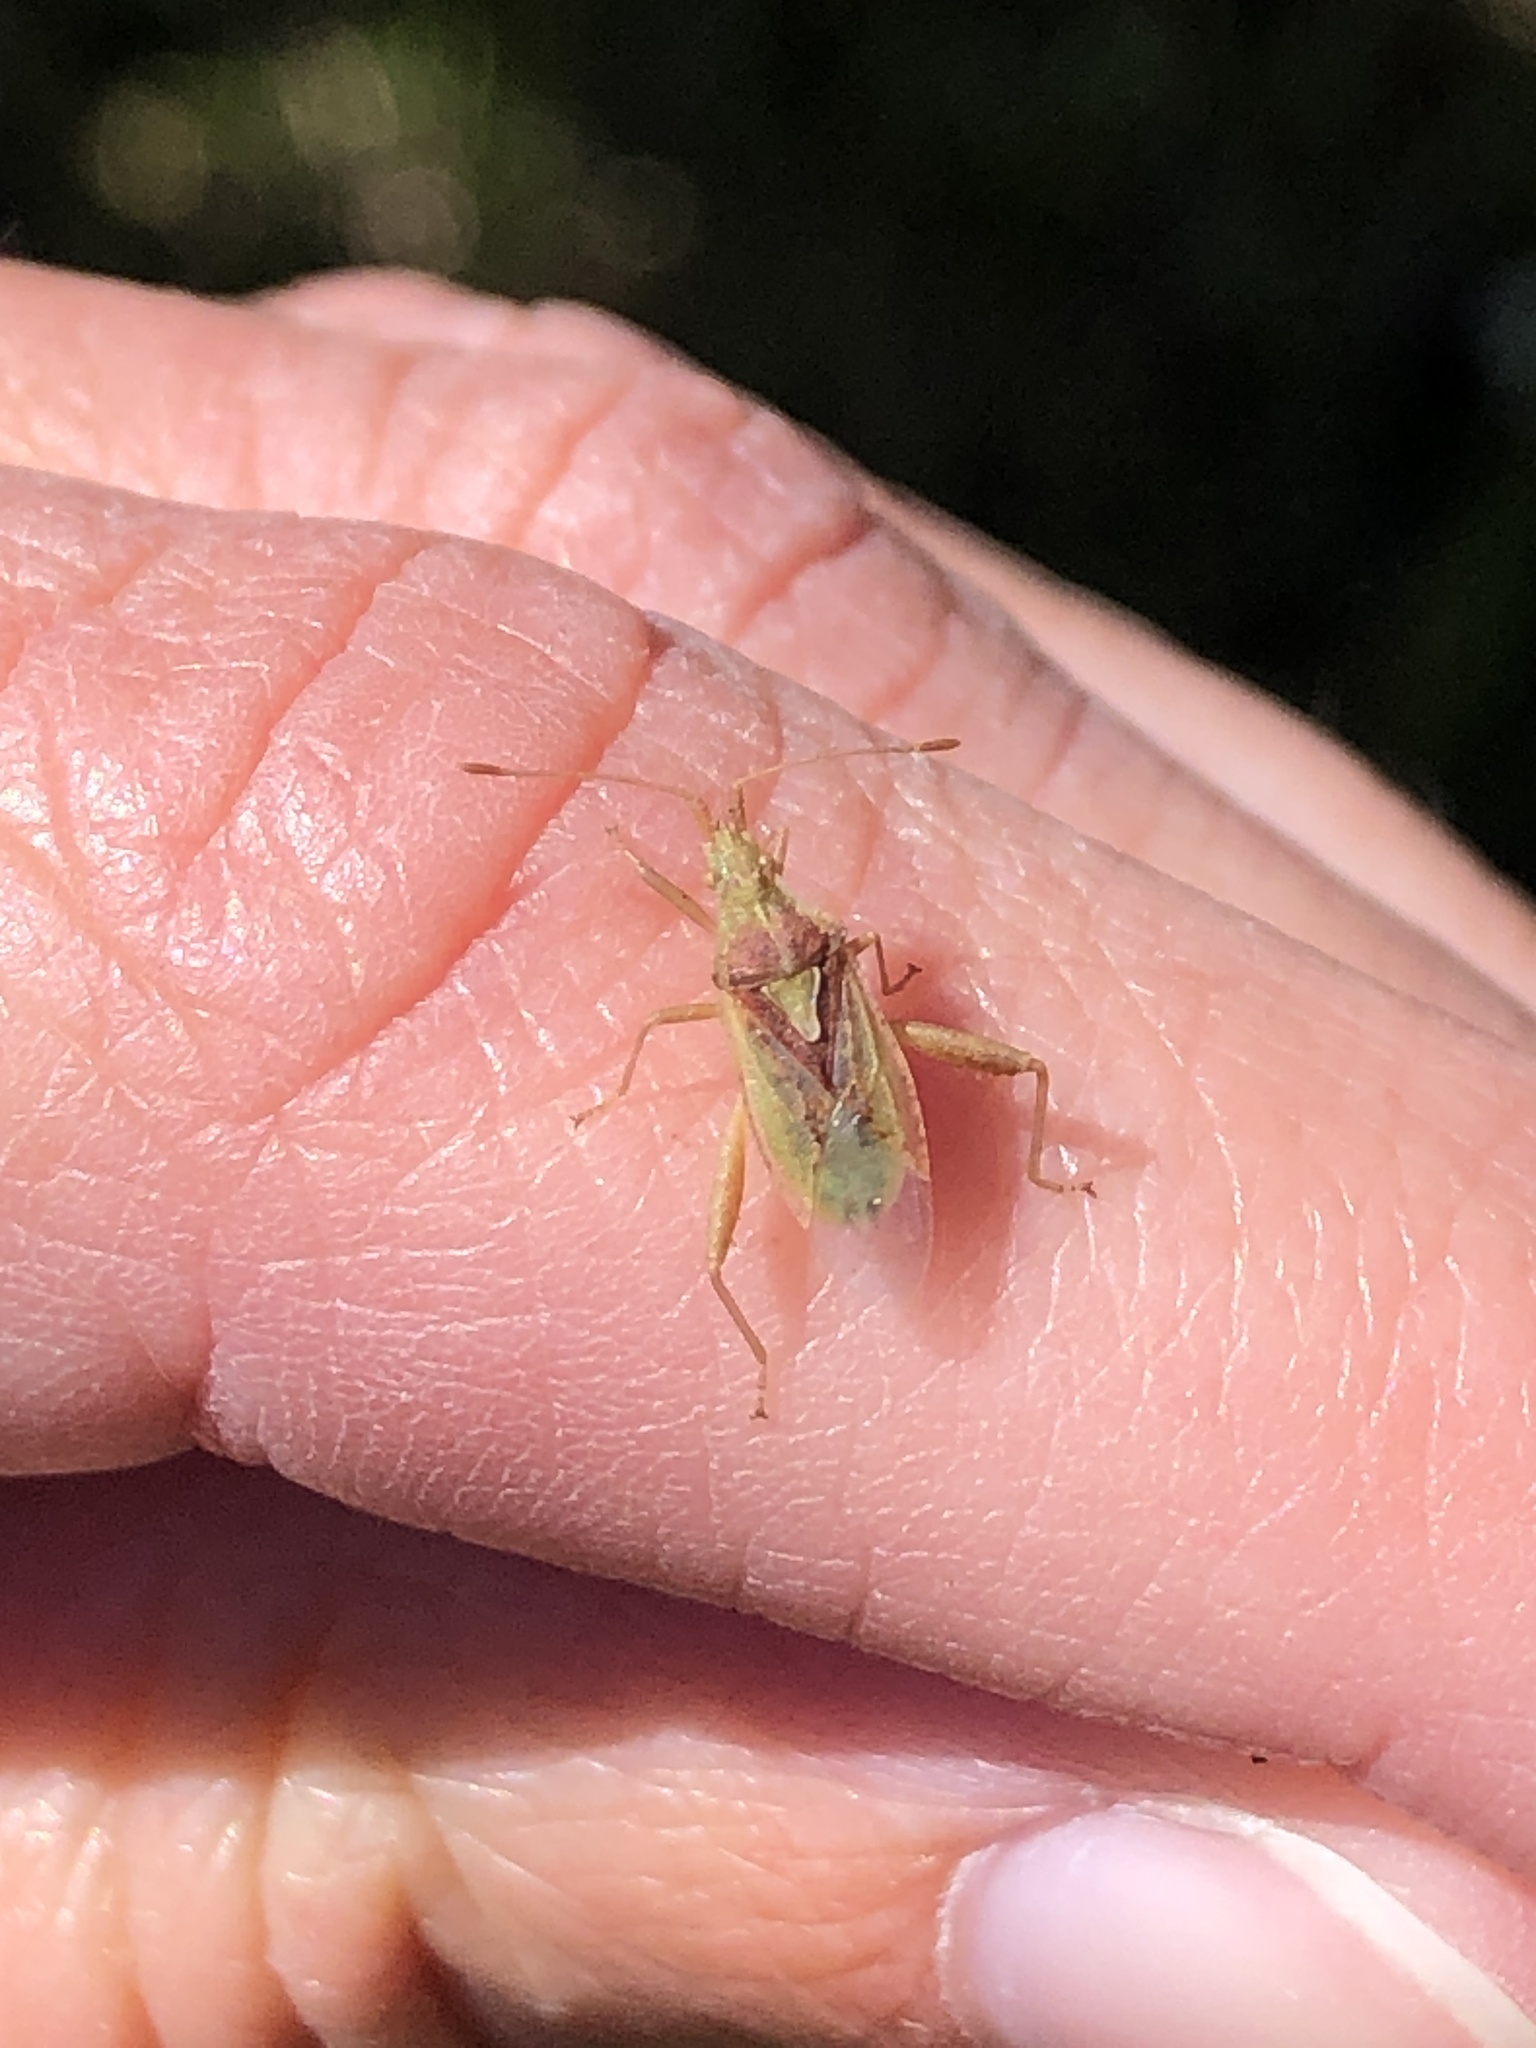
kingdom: Animalia
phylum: Arthropoda
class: Insecta
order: Hemiptera
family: Rhopalidae
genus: Harmostes
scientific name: Harmostes reflexulus
